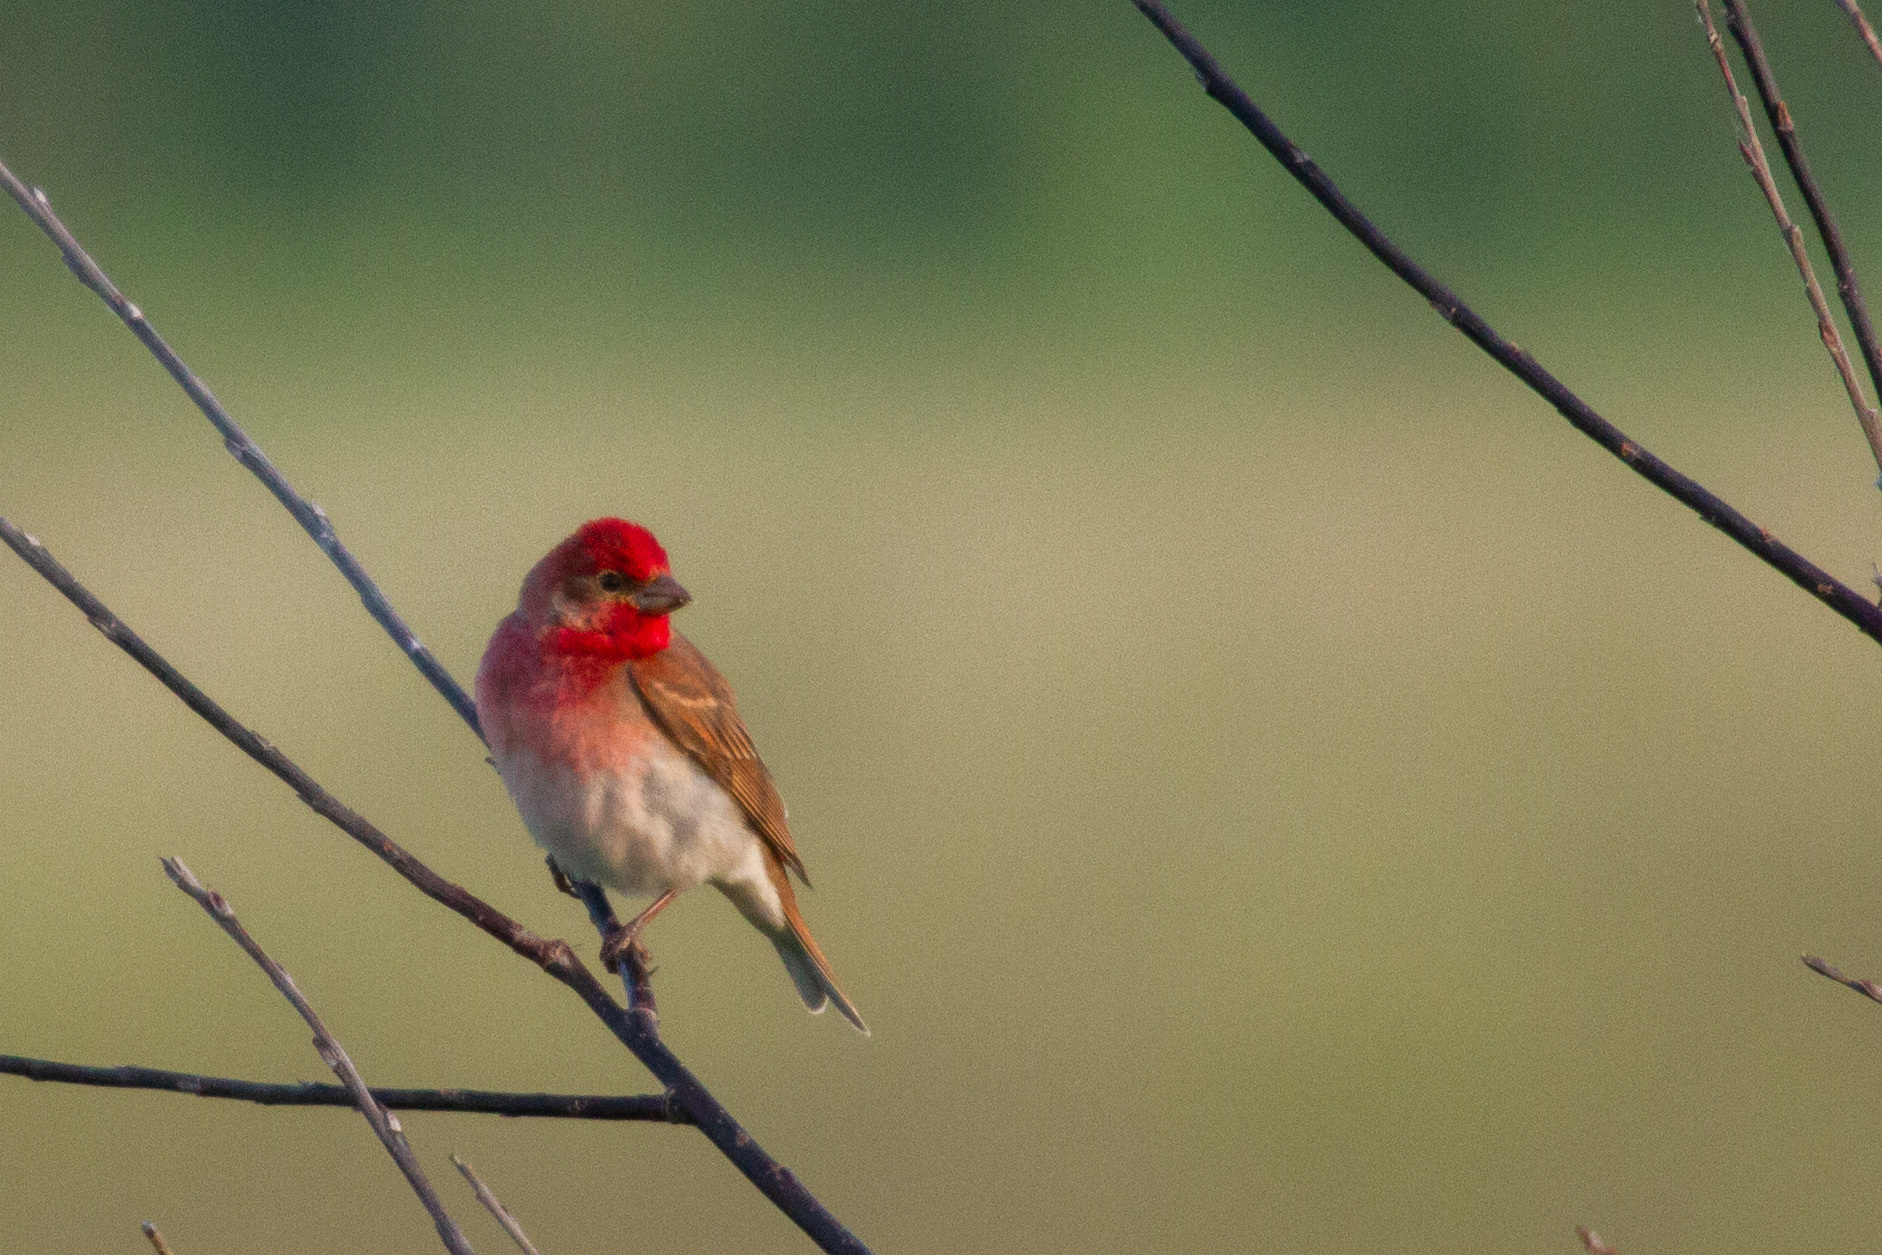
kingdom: Animalia
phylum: Chordata
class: Aves
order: Passeriformes
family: Fringillidae
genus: Carpodacus
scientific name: Carpodacus erythrinus
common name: Common rosefinch
